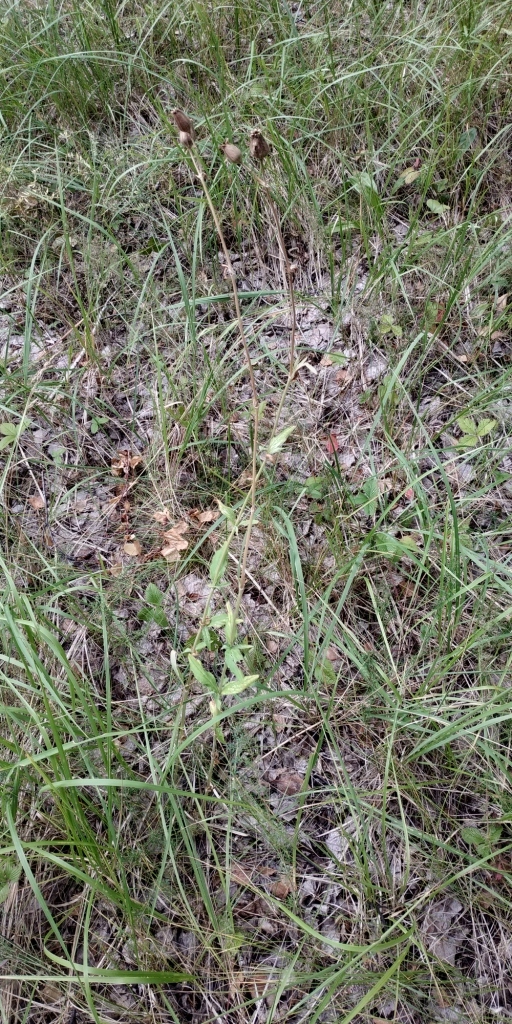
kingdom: Plantae
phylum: Tracheophyta
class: Magnoliopsida
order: Caryophyllales
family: Caryophyllaceae
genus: Silene
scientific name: Silene latifolia
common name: White campion
